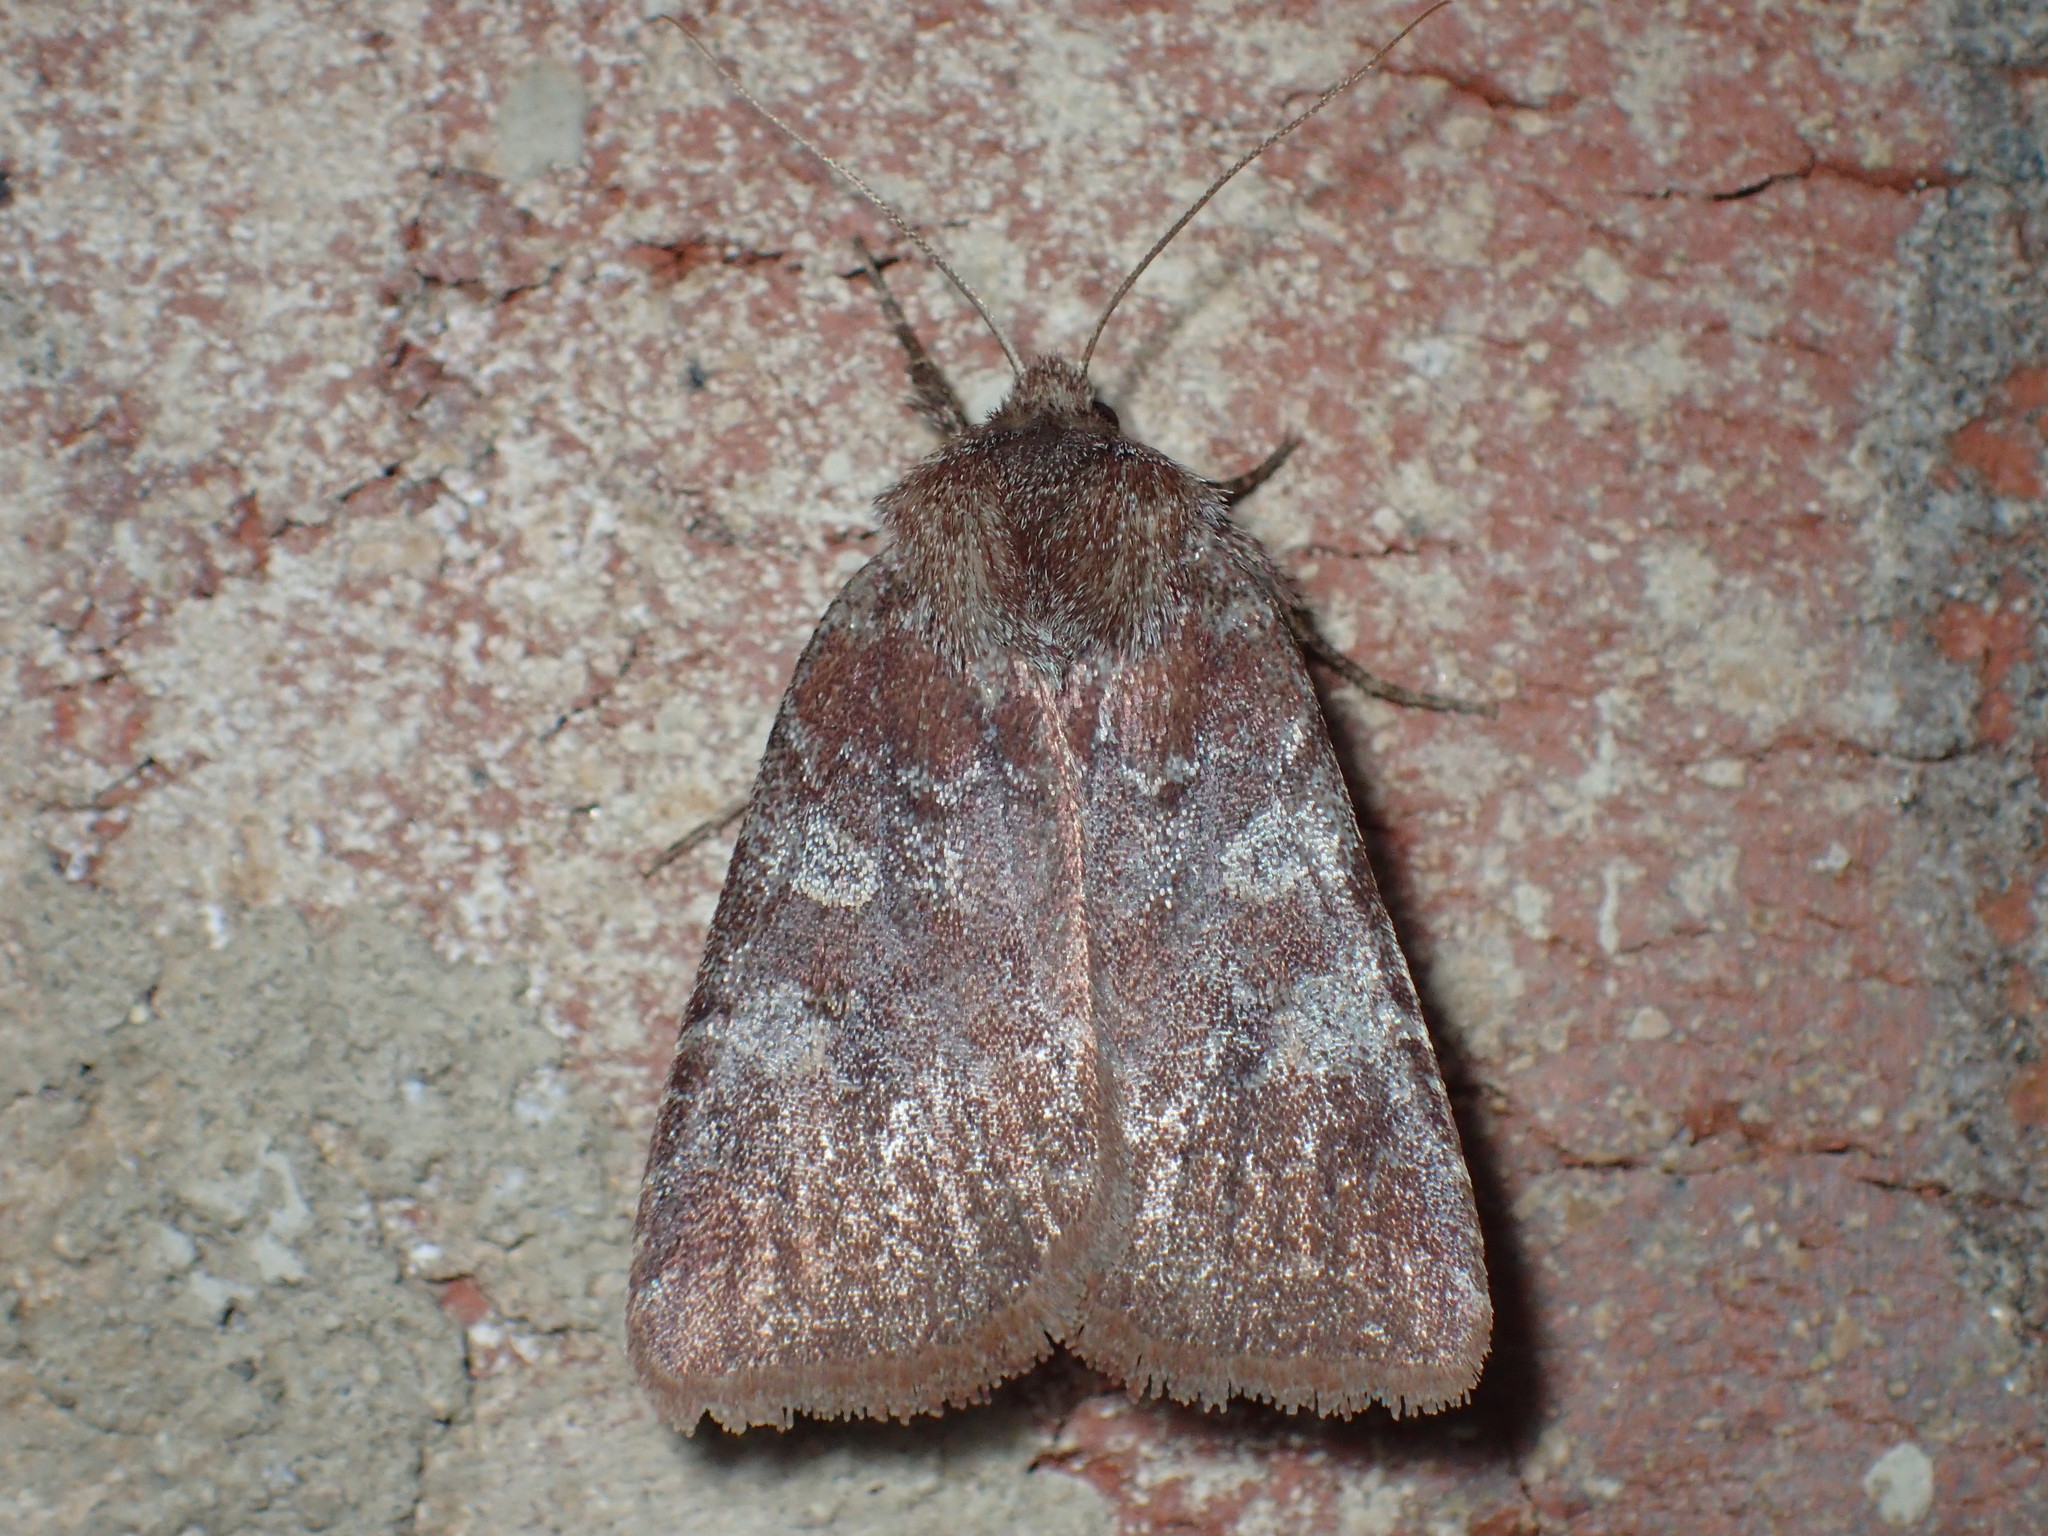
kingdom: Animalia
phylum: Arthropoda
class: Insecta
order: Lepidoptera
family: Noctuidae
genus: Cerastis
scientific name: Cerastis tenebrifera
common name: Reddish speckled dart
